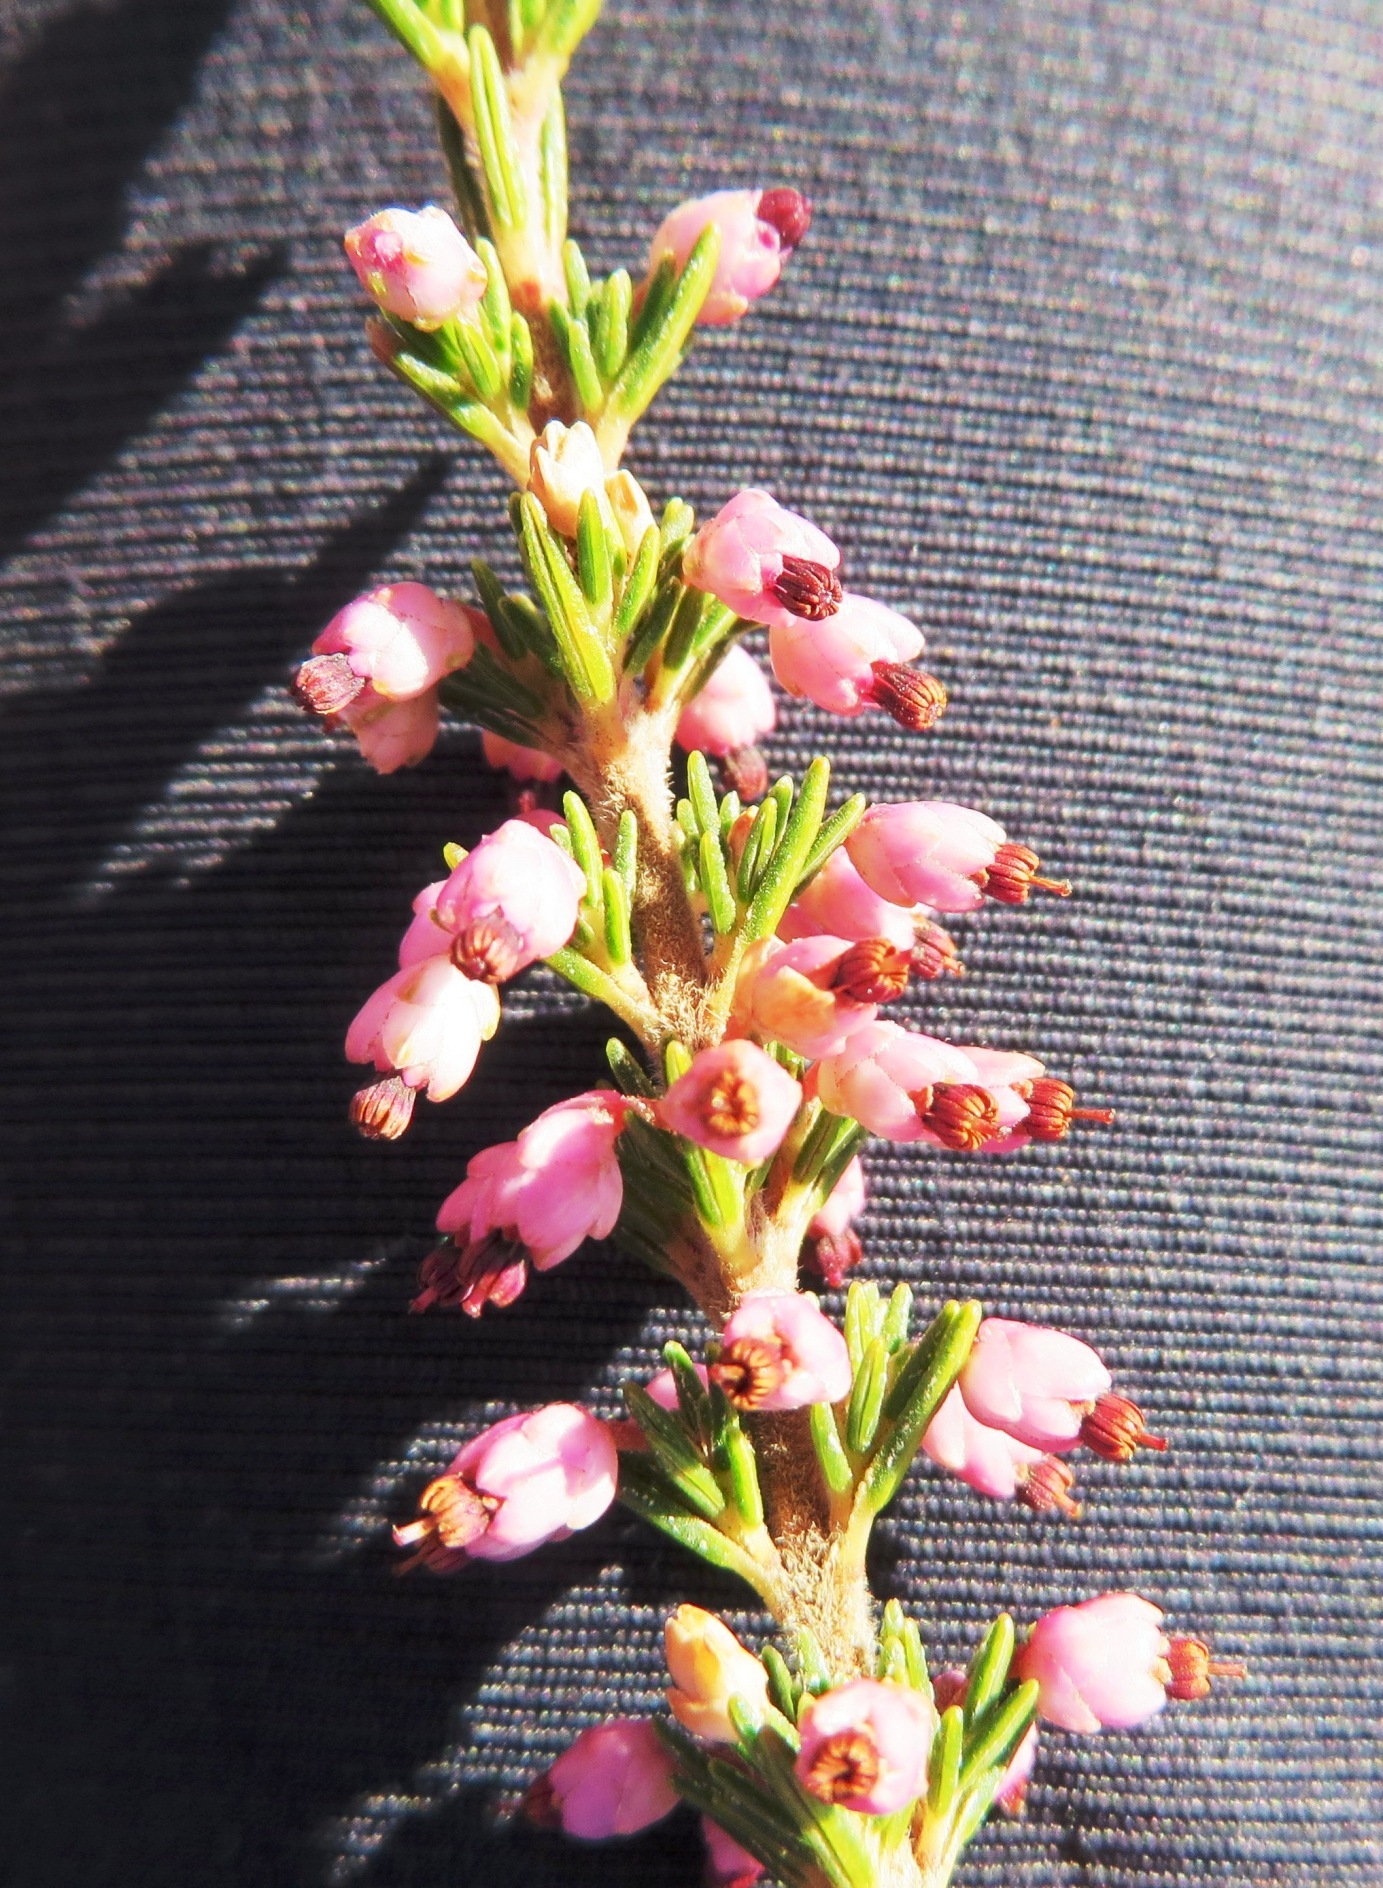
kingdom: Plantae
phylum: Tracheophyta
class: Magnoliopsida
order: Ericales
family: Ericaceae
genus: Erica
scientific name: Erica placentiflora
